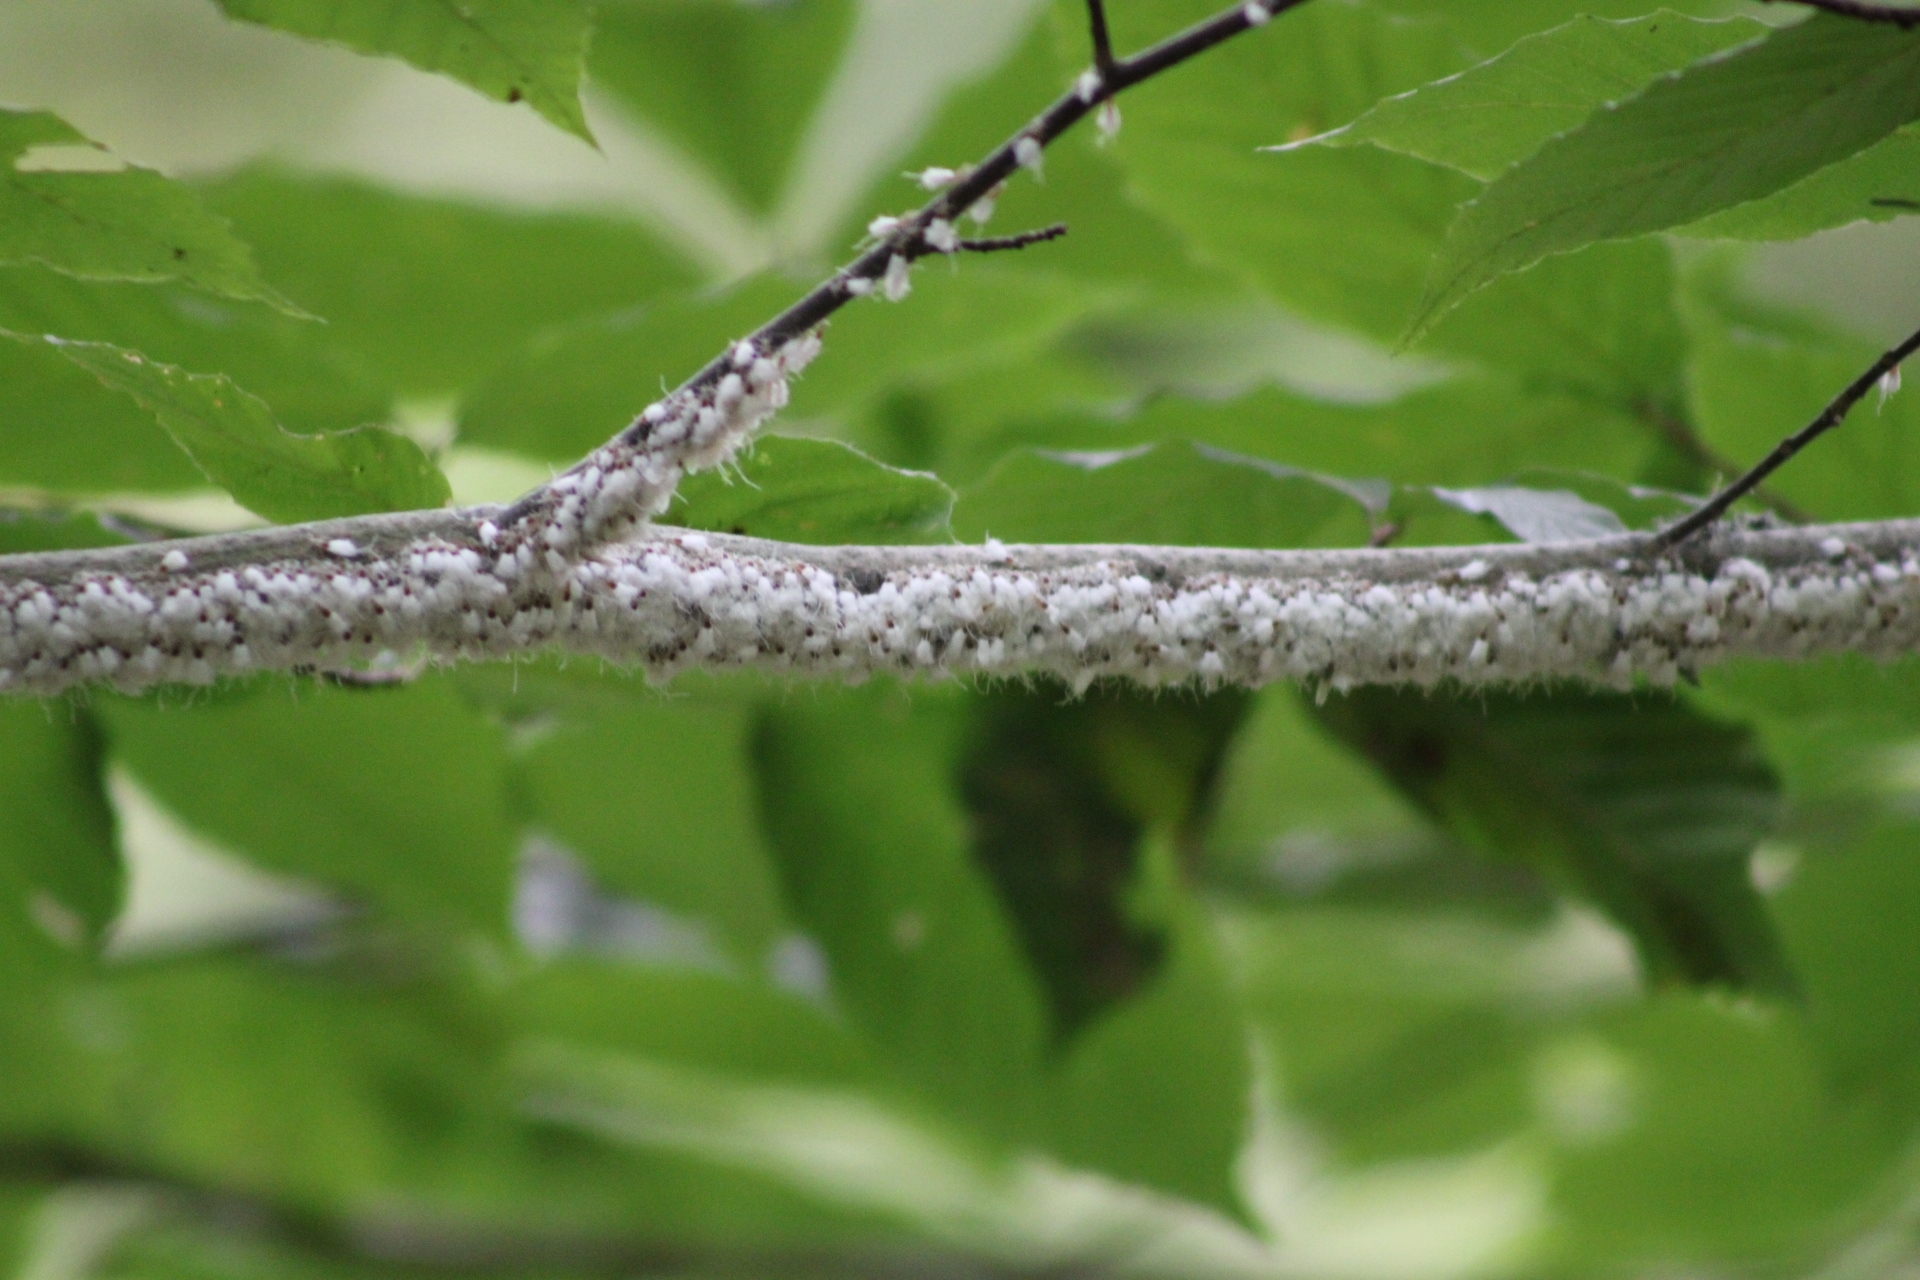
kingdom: Animalia
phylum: Arthropoda
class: Insecta
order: Hemiptera
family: Aphididae
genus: Grylloprociphilus
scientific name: Grylloprociphilus imbricator
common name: Beech blight aphid
